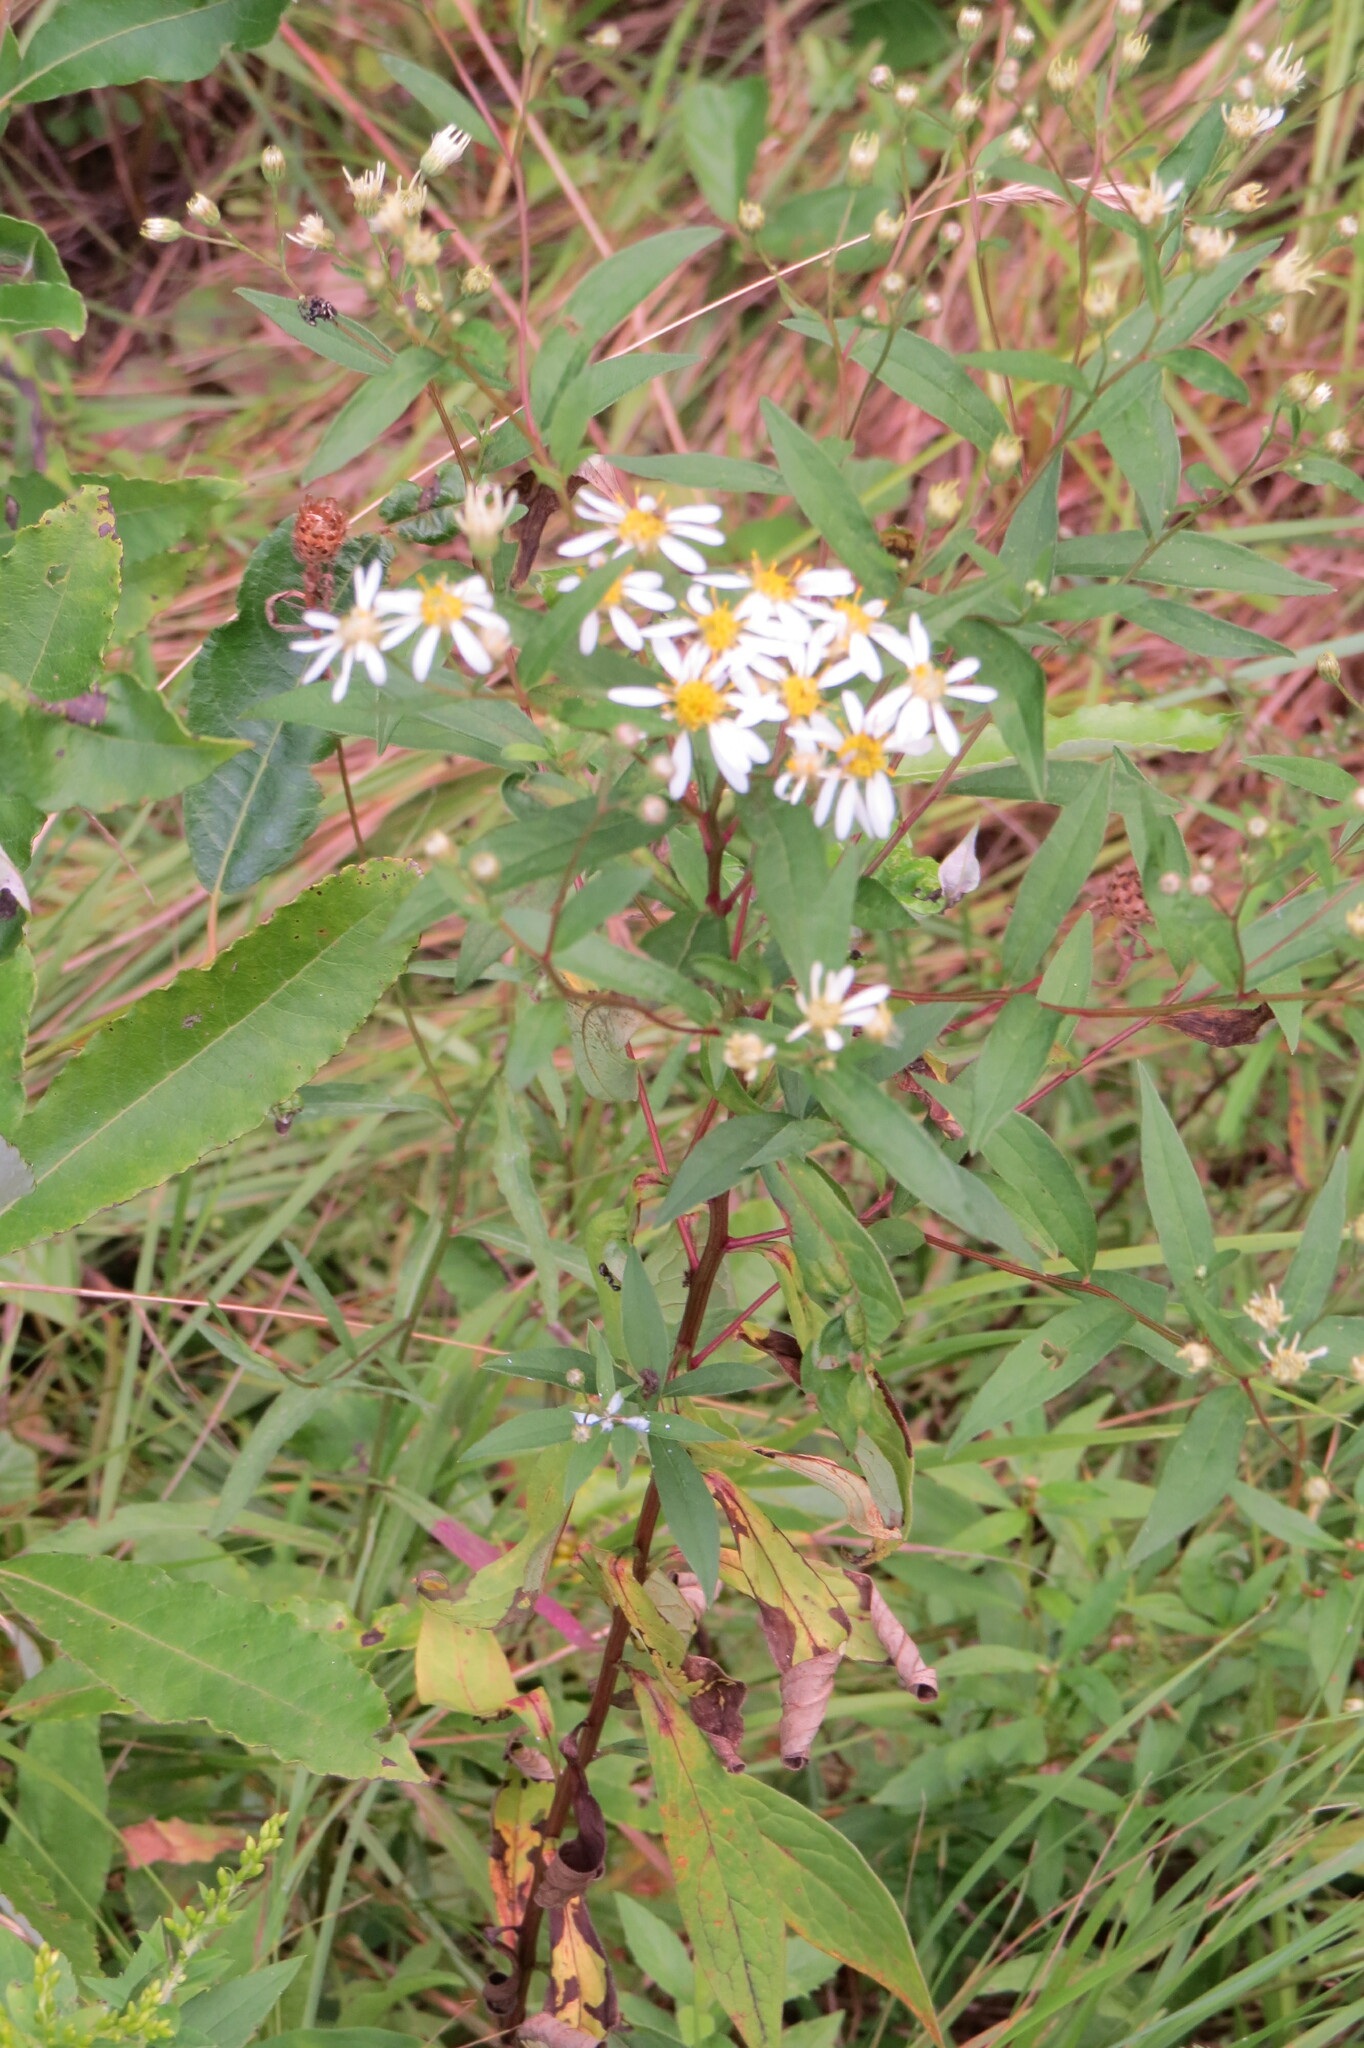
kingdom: Plantae
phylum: Tracheophyta
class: Magnoliopsida
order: Asterales
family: Asteraceae
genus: Doellingeria
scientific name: Doellingeria umbellata
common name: Flat-top white aster
